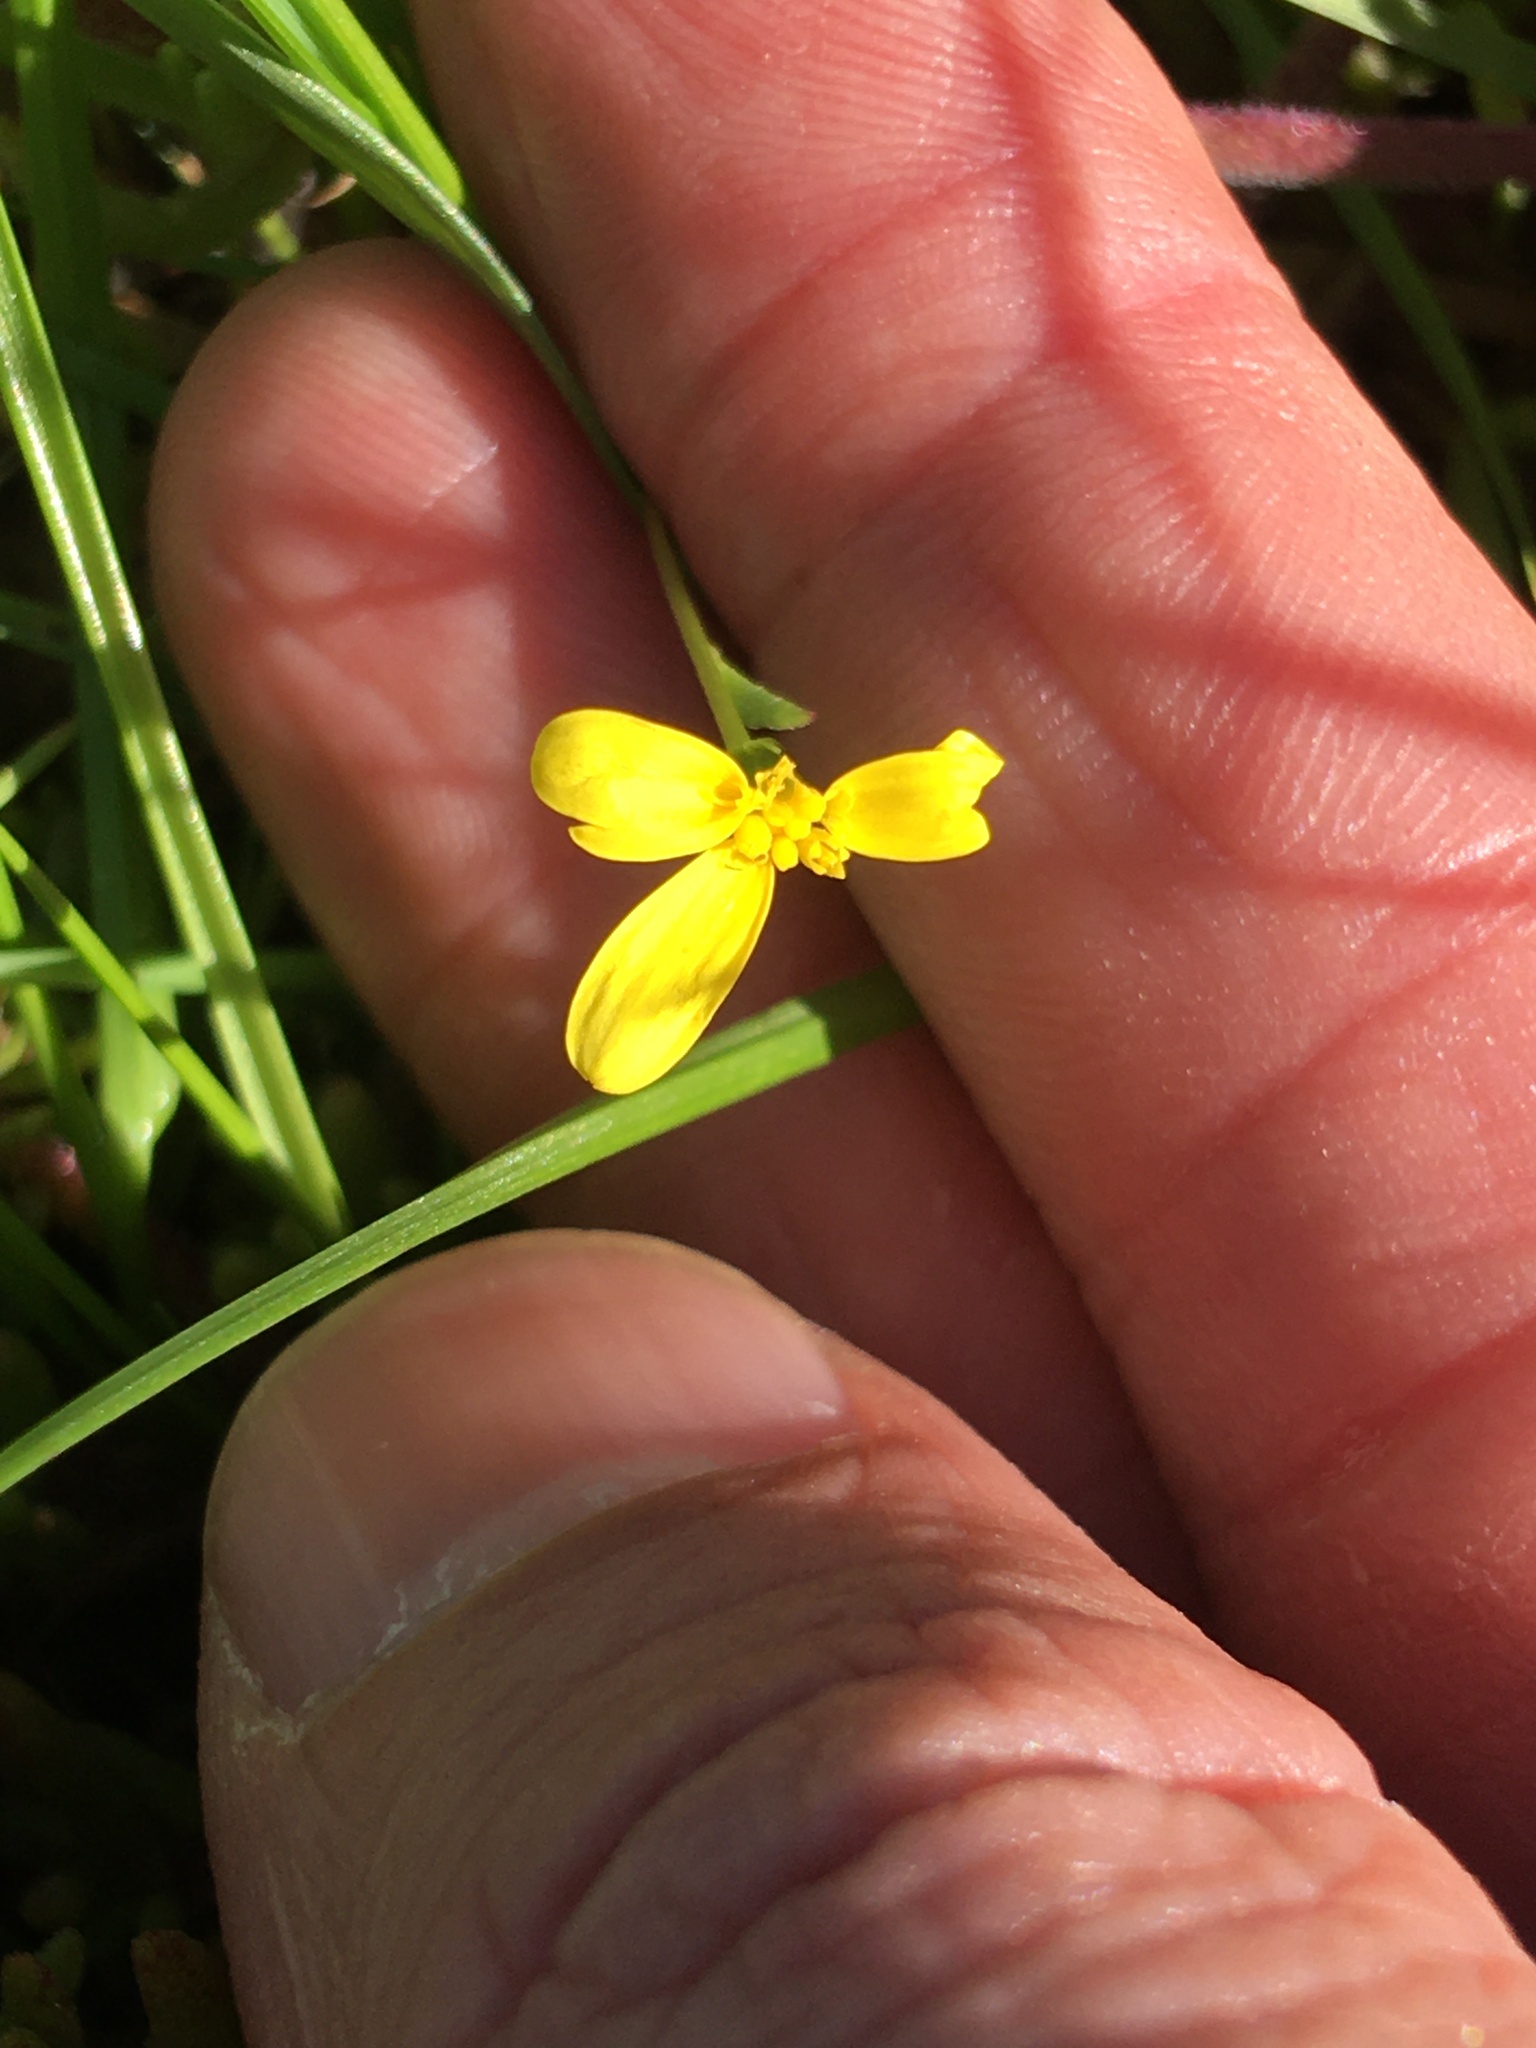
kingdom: Plantae
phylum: Tracheophyta
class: Magnoliopsida
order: Asterales
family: Asteraceae
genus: Senecio
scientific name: Senecio pubigerus
